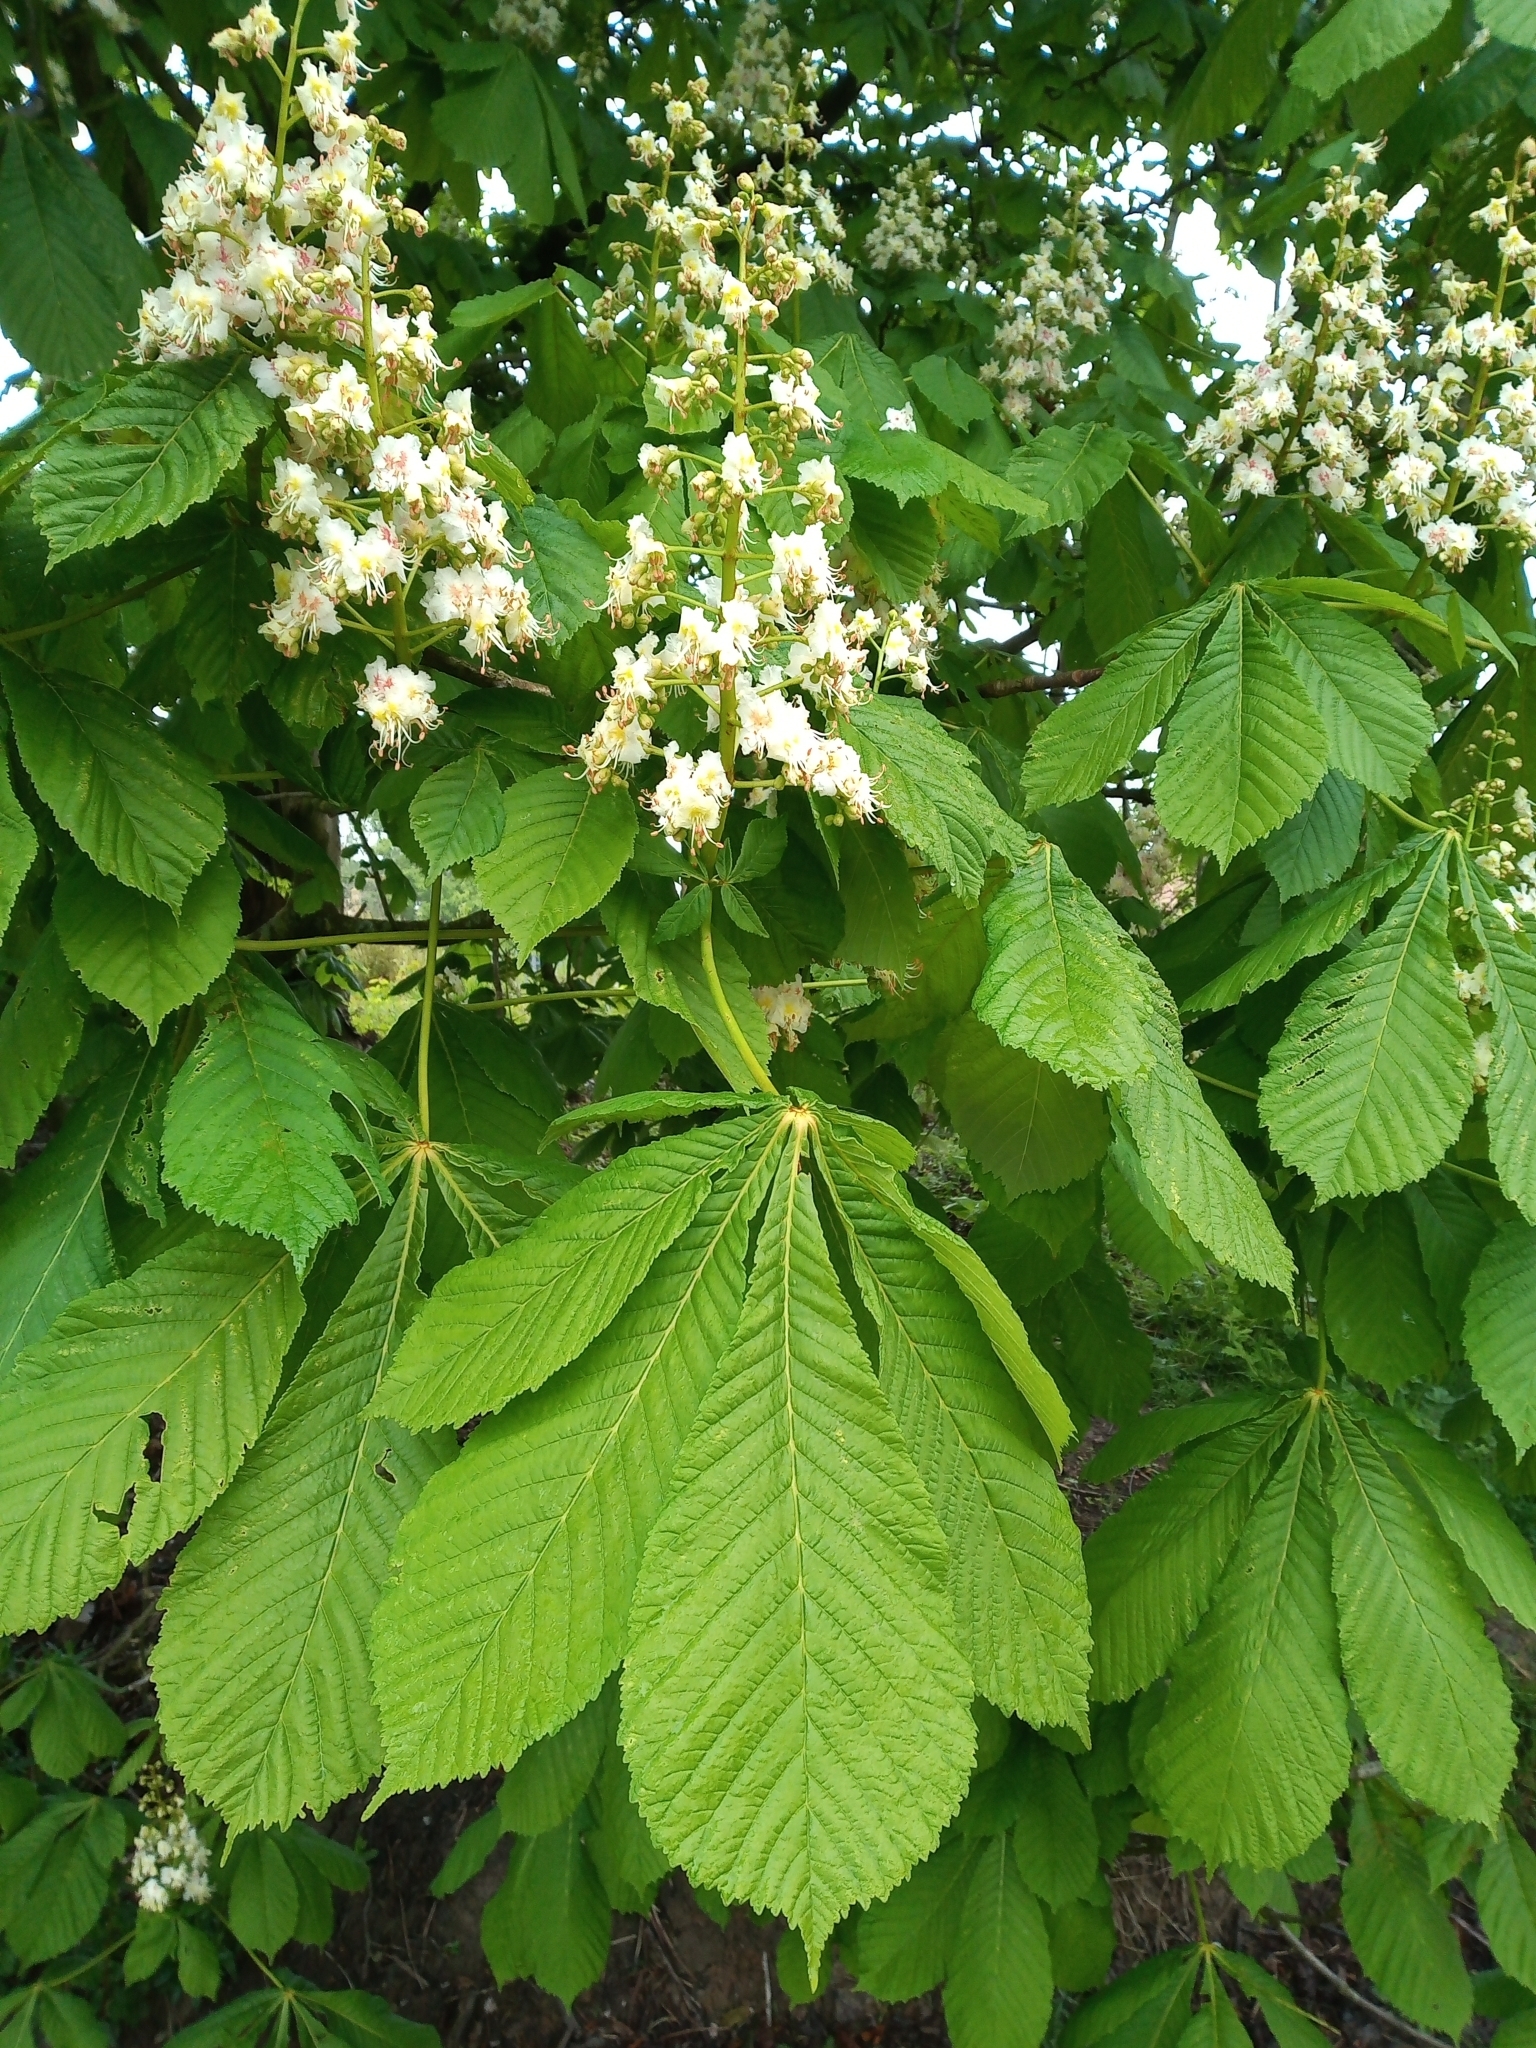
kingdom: Plantae
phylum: Tracheophyta
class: Magnoliopsida
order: Sapindales
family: Sapindaceae
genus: Aesculus
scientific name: Aesculus hippocastanum
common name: Horse-chestnut
